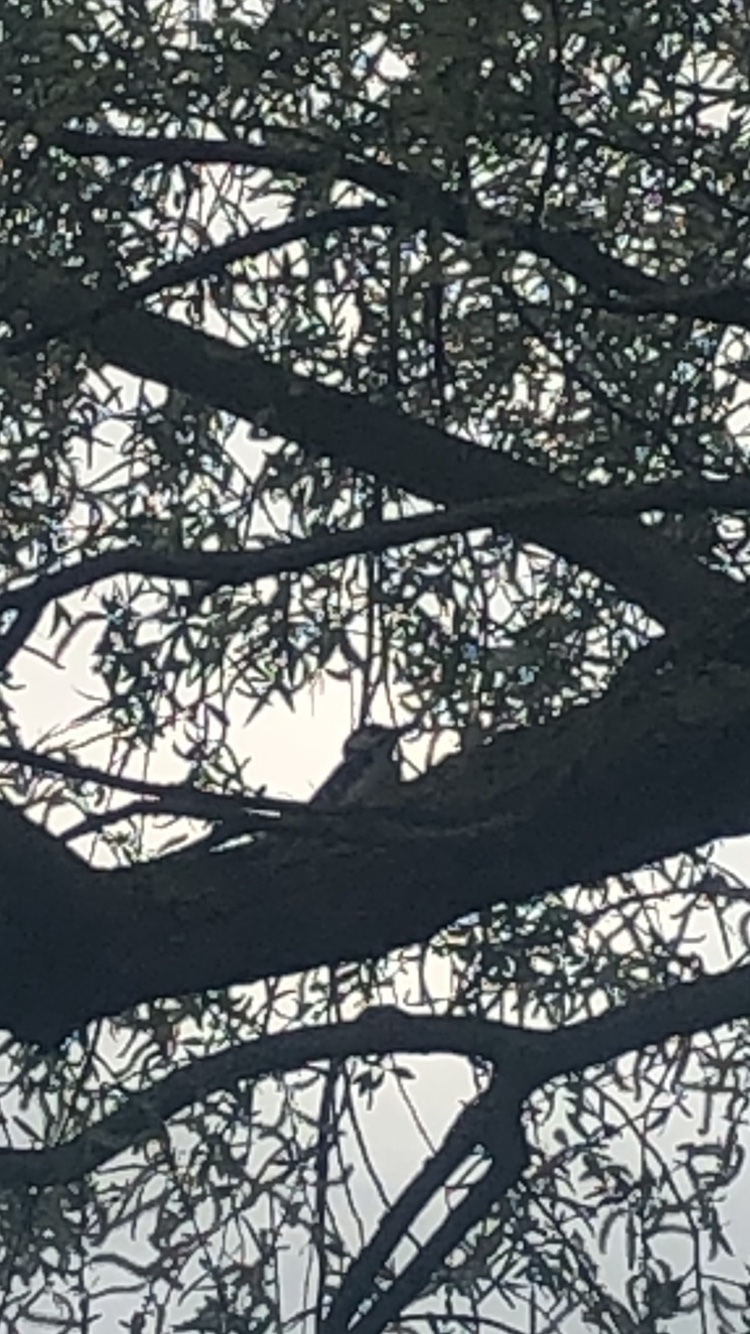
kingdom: Animalia
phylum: Chordata
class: Aves
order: Piciformes
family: Picidae
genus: Dendrocopos
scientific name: Dendrocopos major
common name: Great spotted woodpecker
